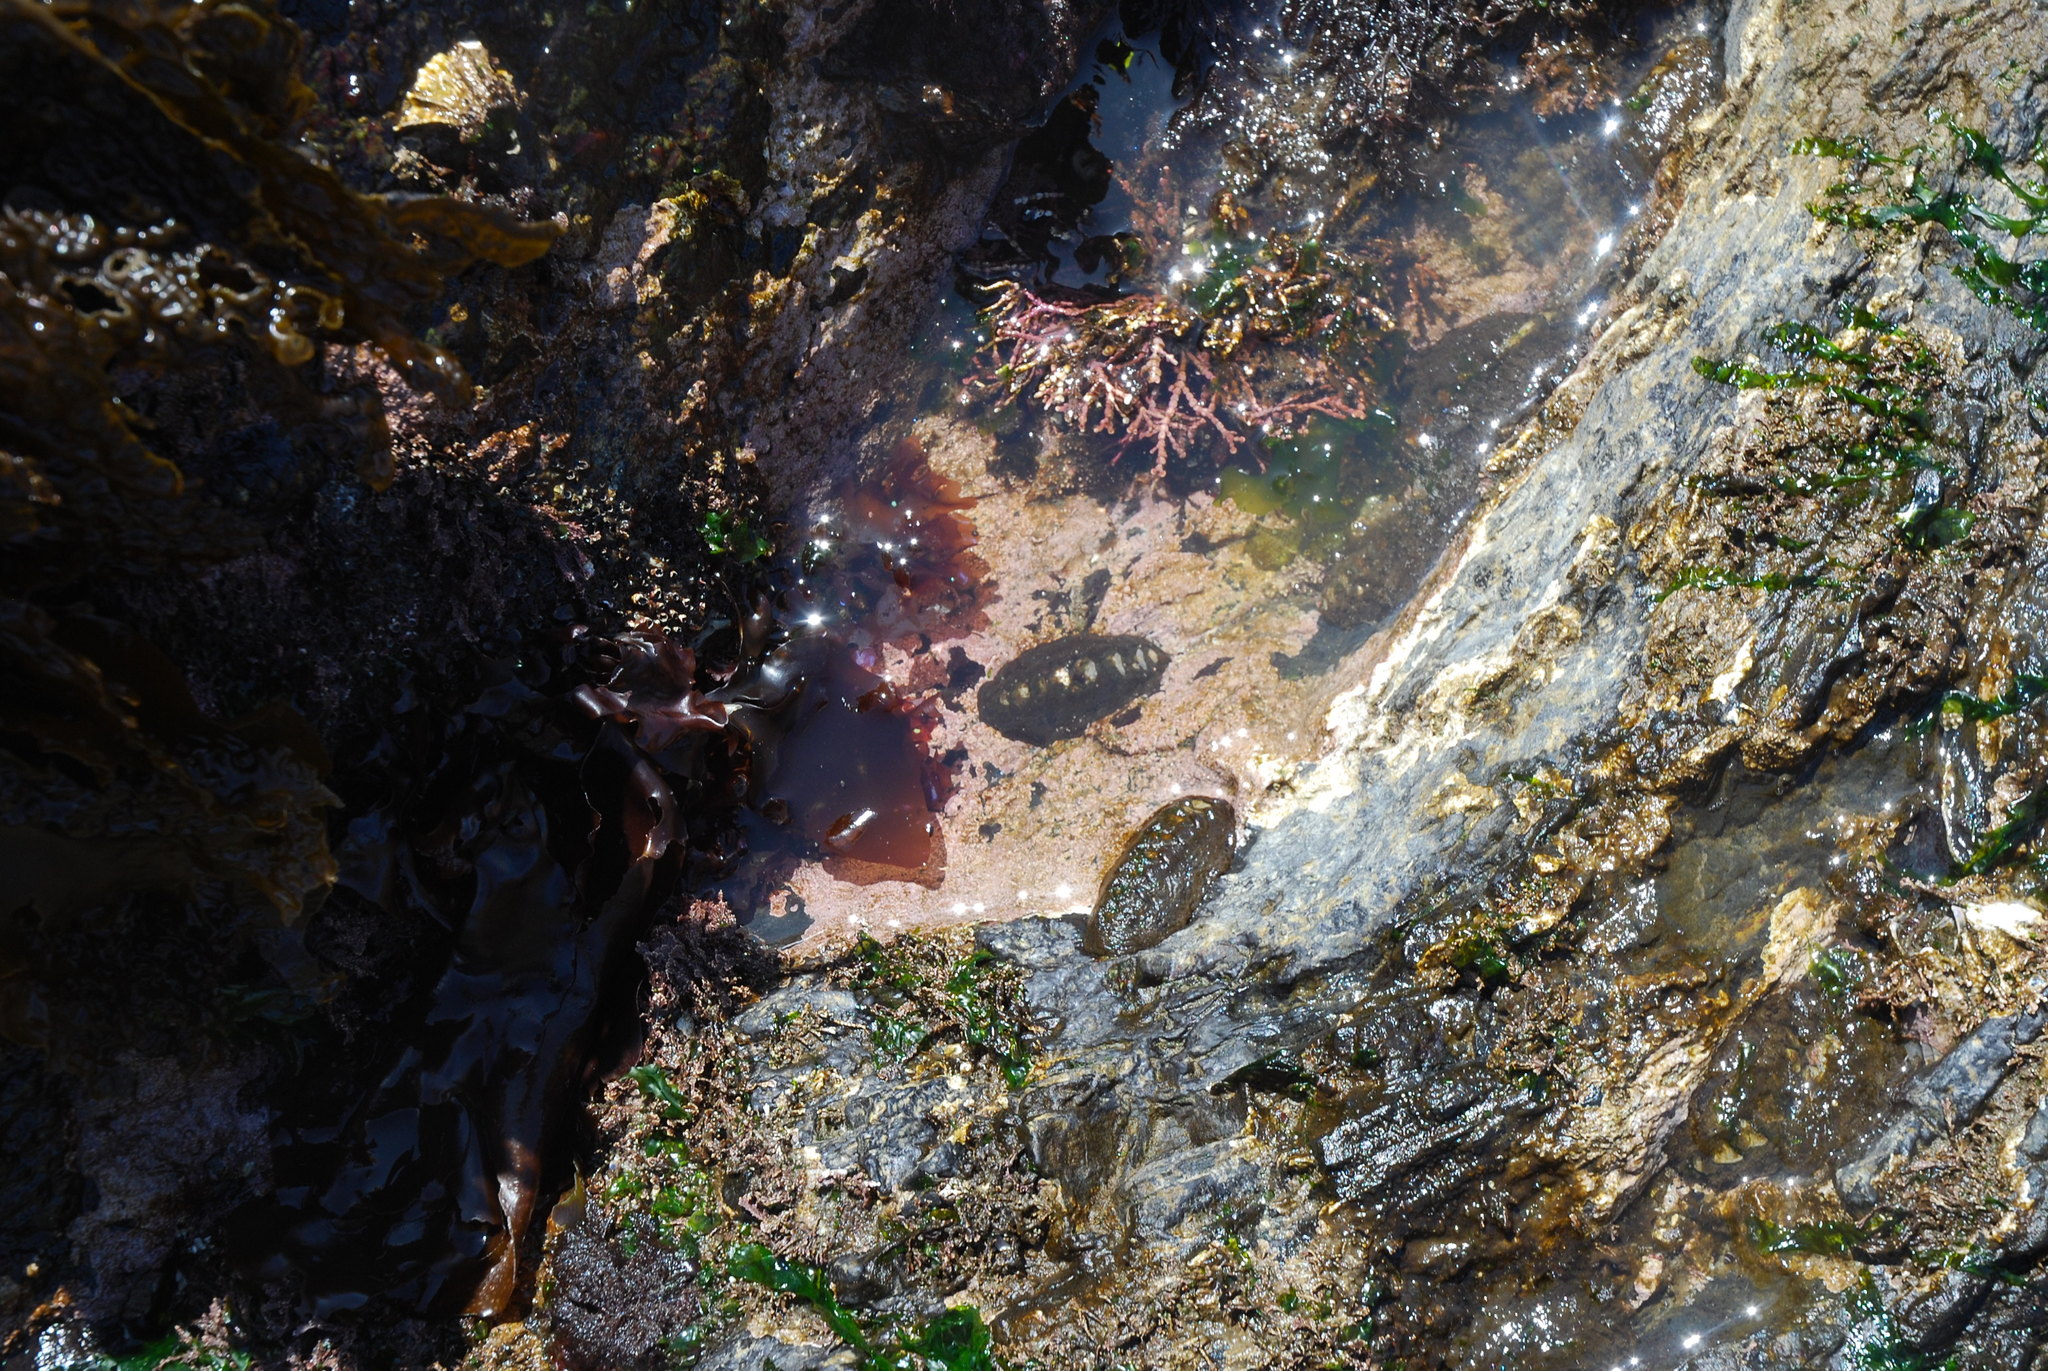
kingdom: Animalia
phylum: Mollusca
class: Polyplacophora
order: Chitonida
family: Mopaliidae
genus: Katharina
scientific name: Katharina tunicata
